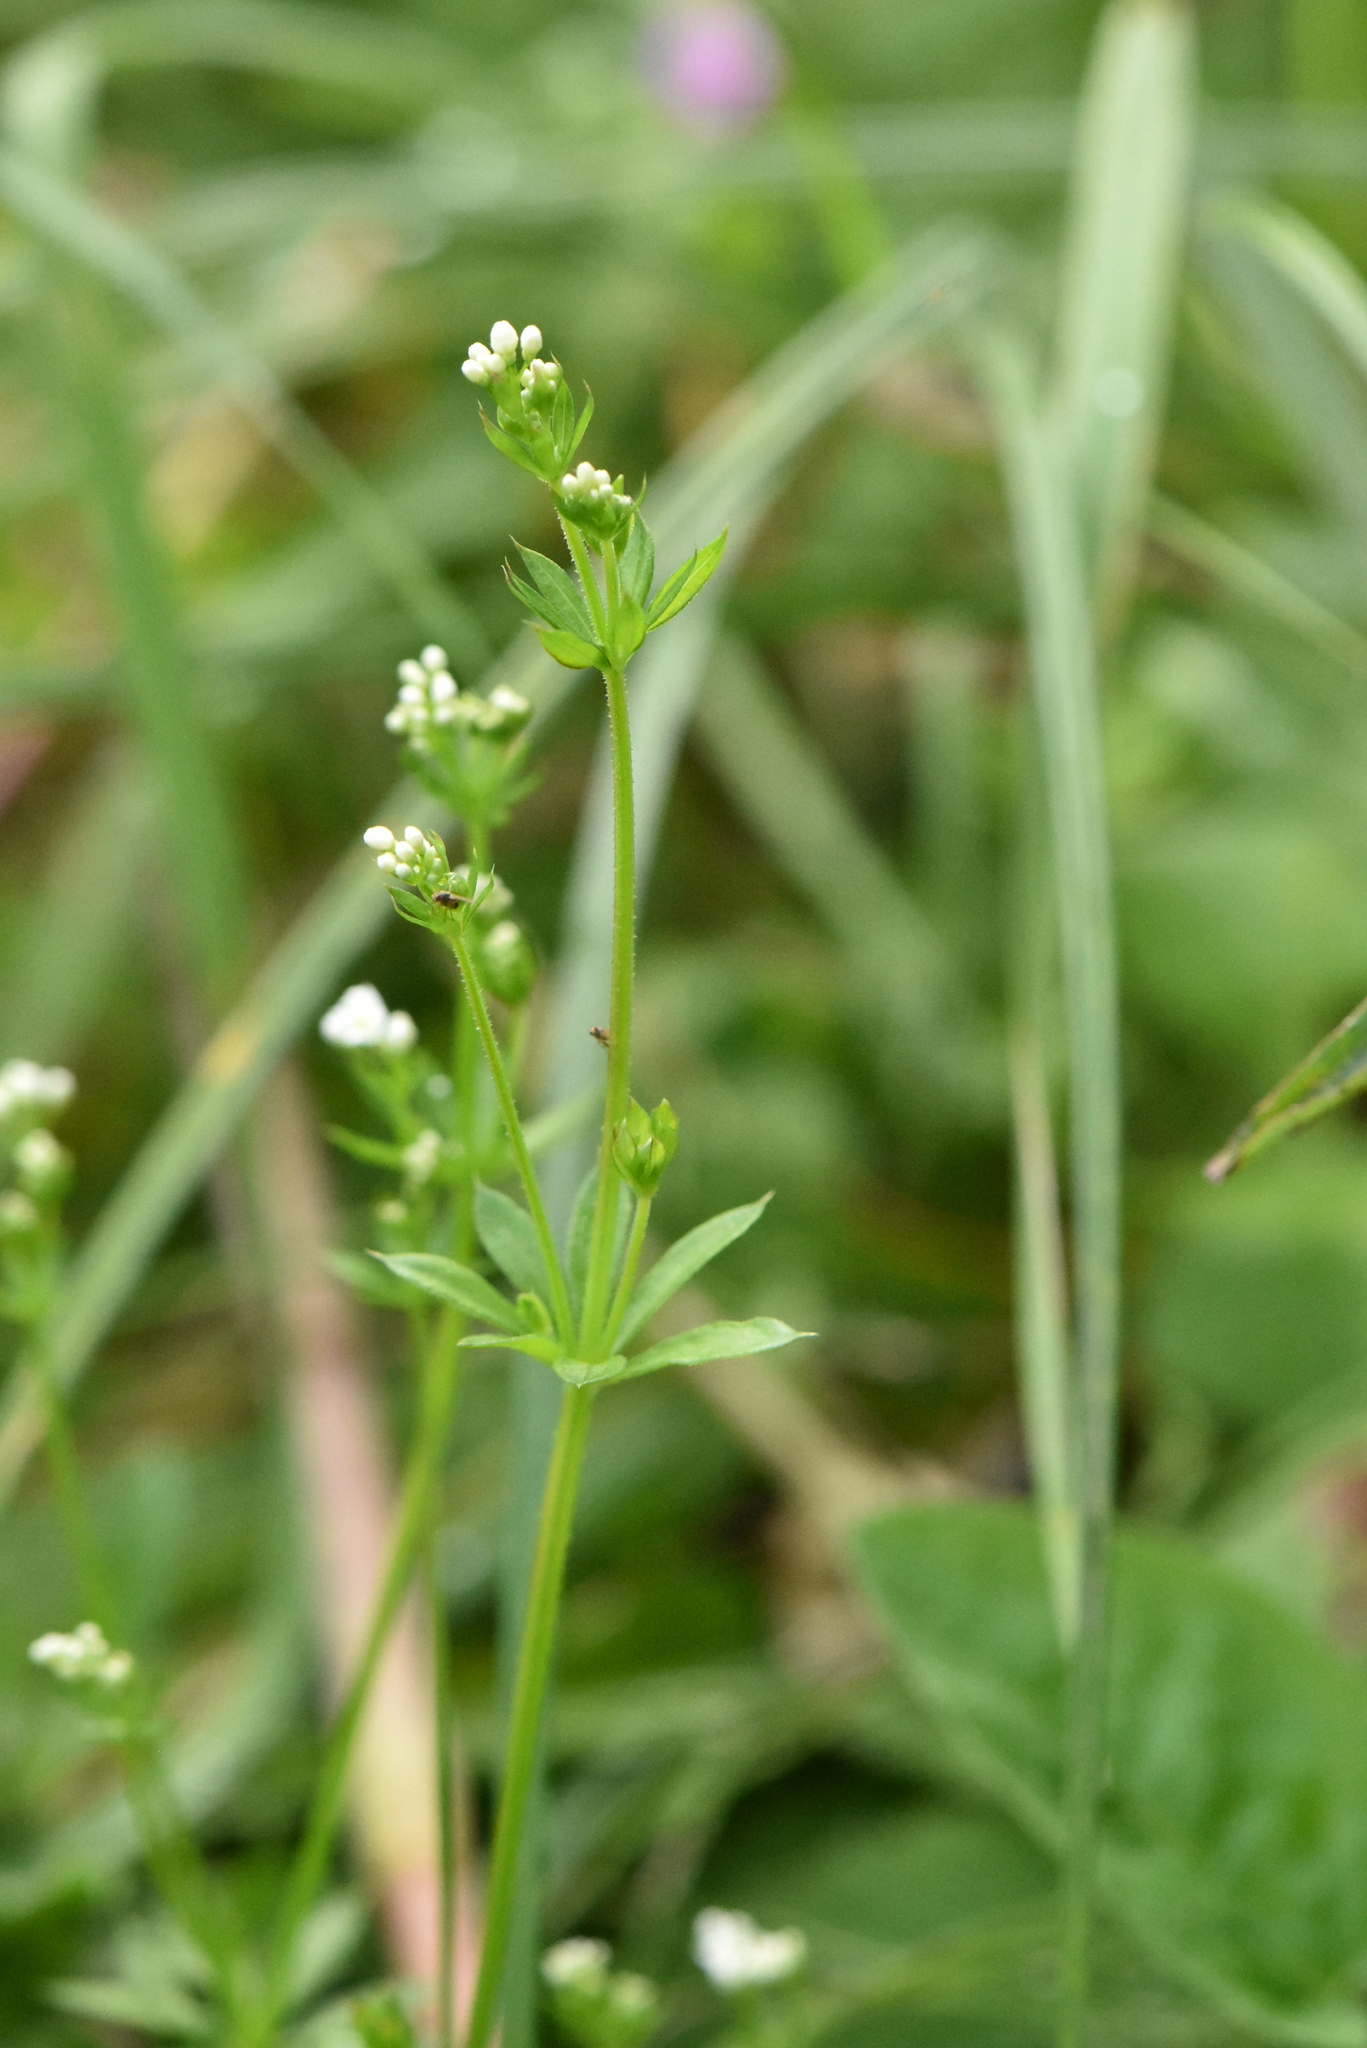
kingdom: Plantae
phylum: Tracheophyta
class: Magnoliopsida
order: Gentianales
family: Rubiaceae
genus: Galium
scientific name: Galium uliginosum
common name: Fen bedstraw
